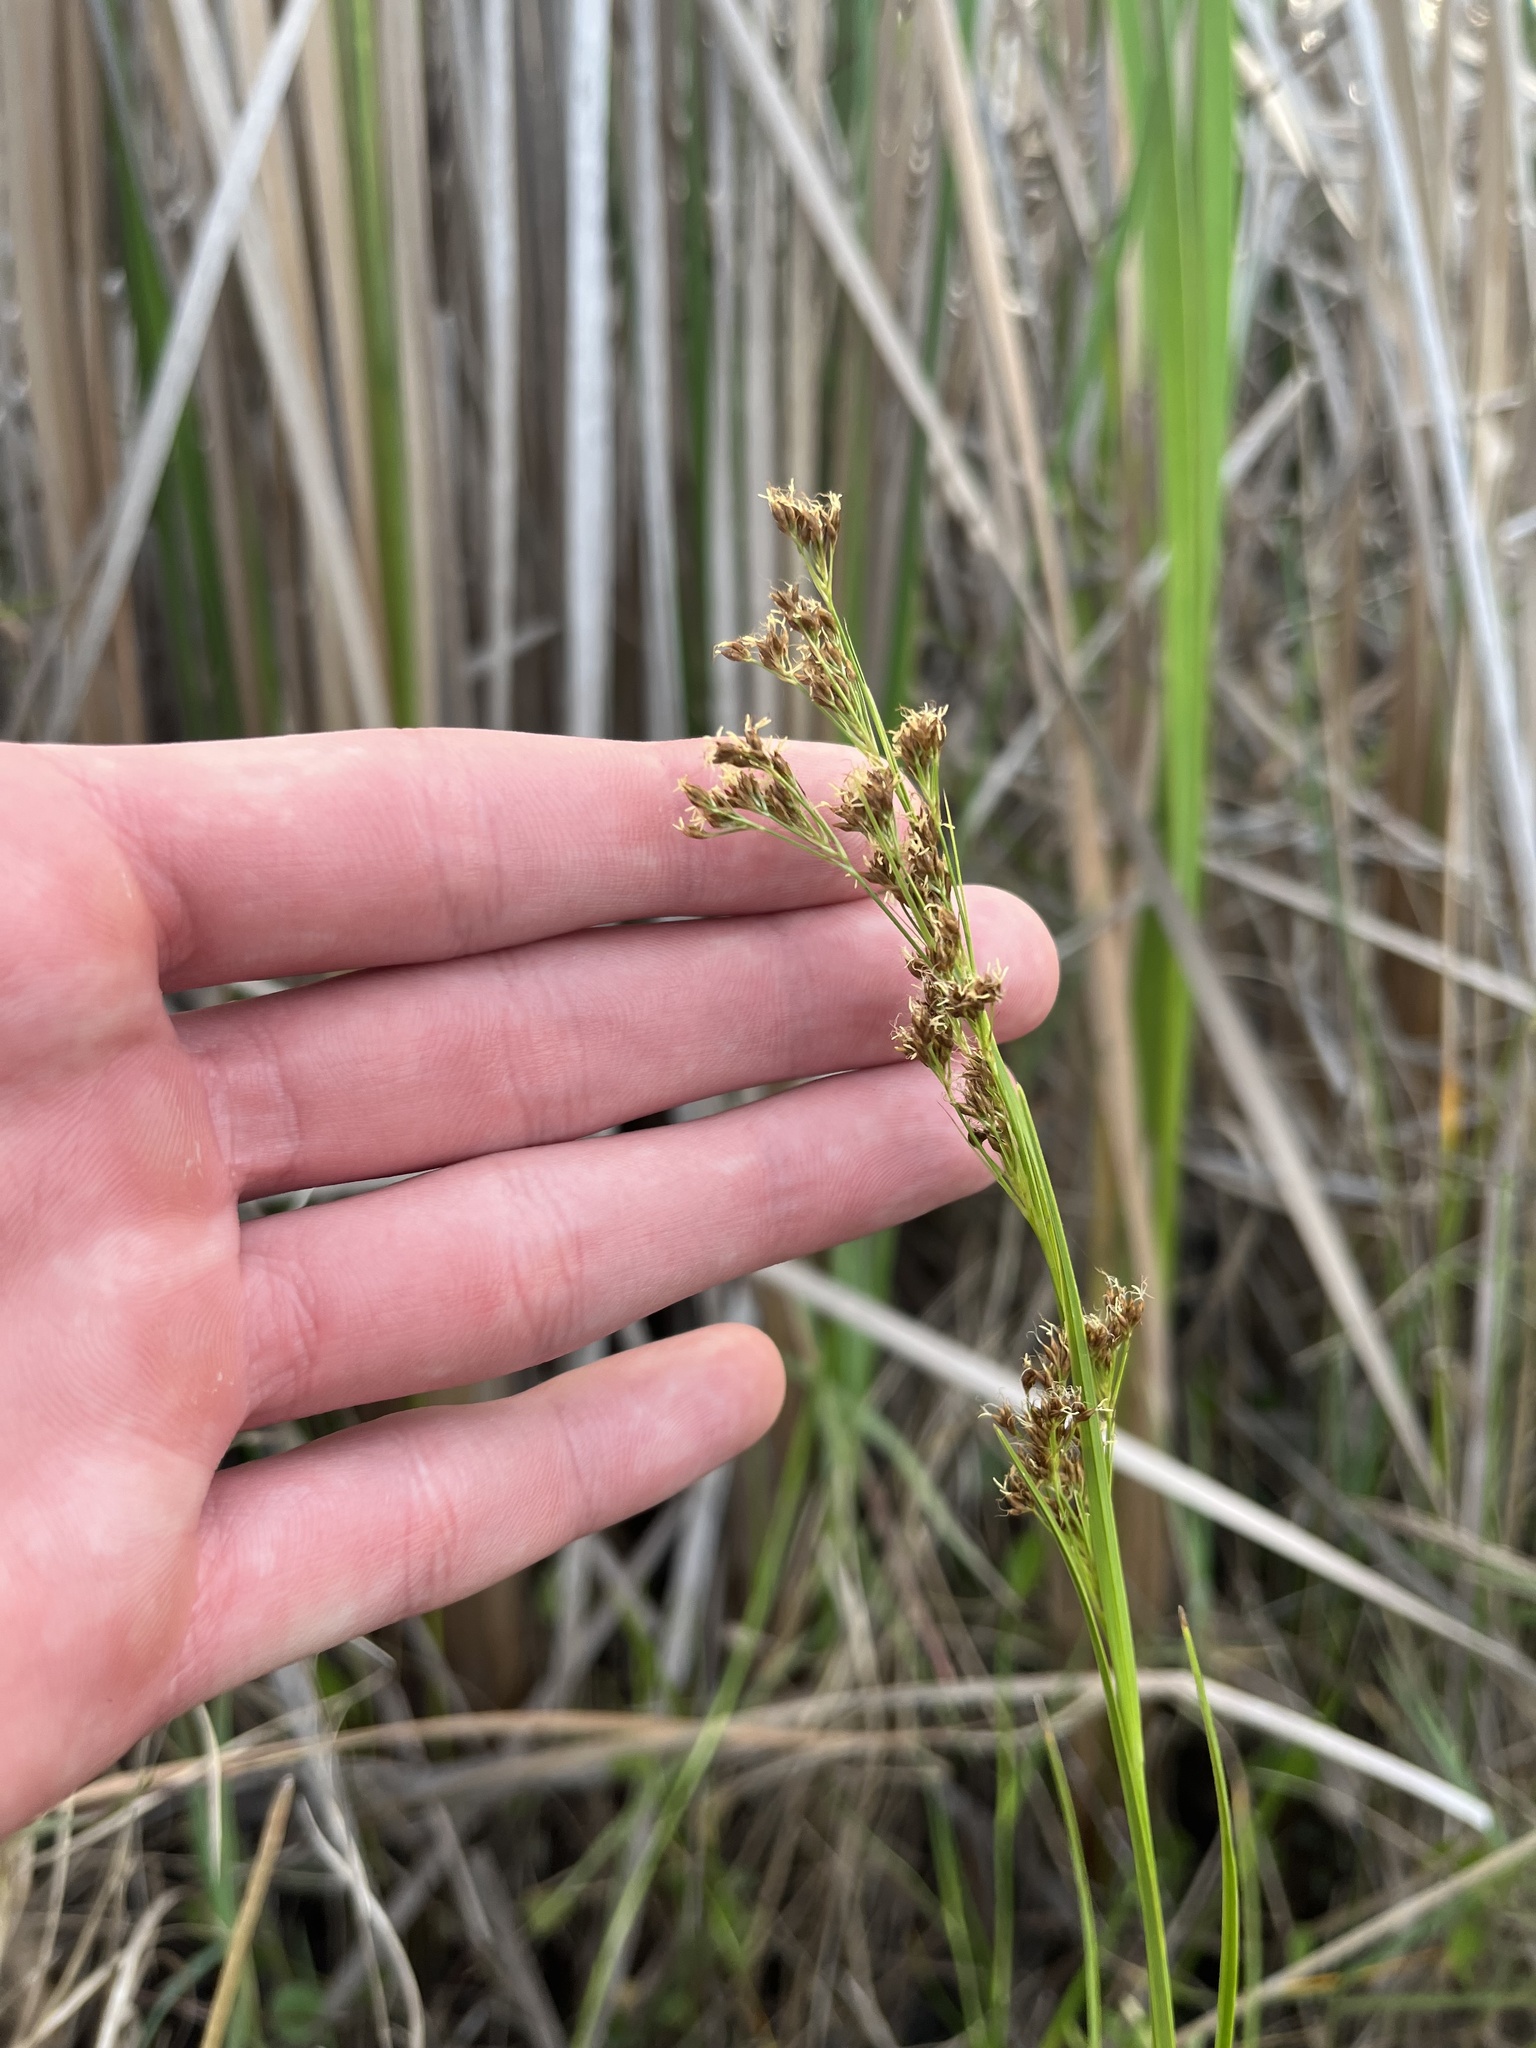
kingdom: Plantae
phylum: Tracheophyta
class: Liliopsida
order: Poales
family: Cyperaceae
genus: Rhynchospora
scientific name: Rhynchospora microcarpa
